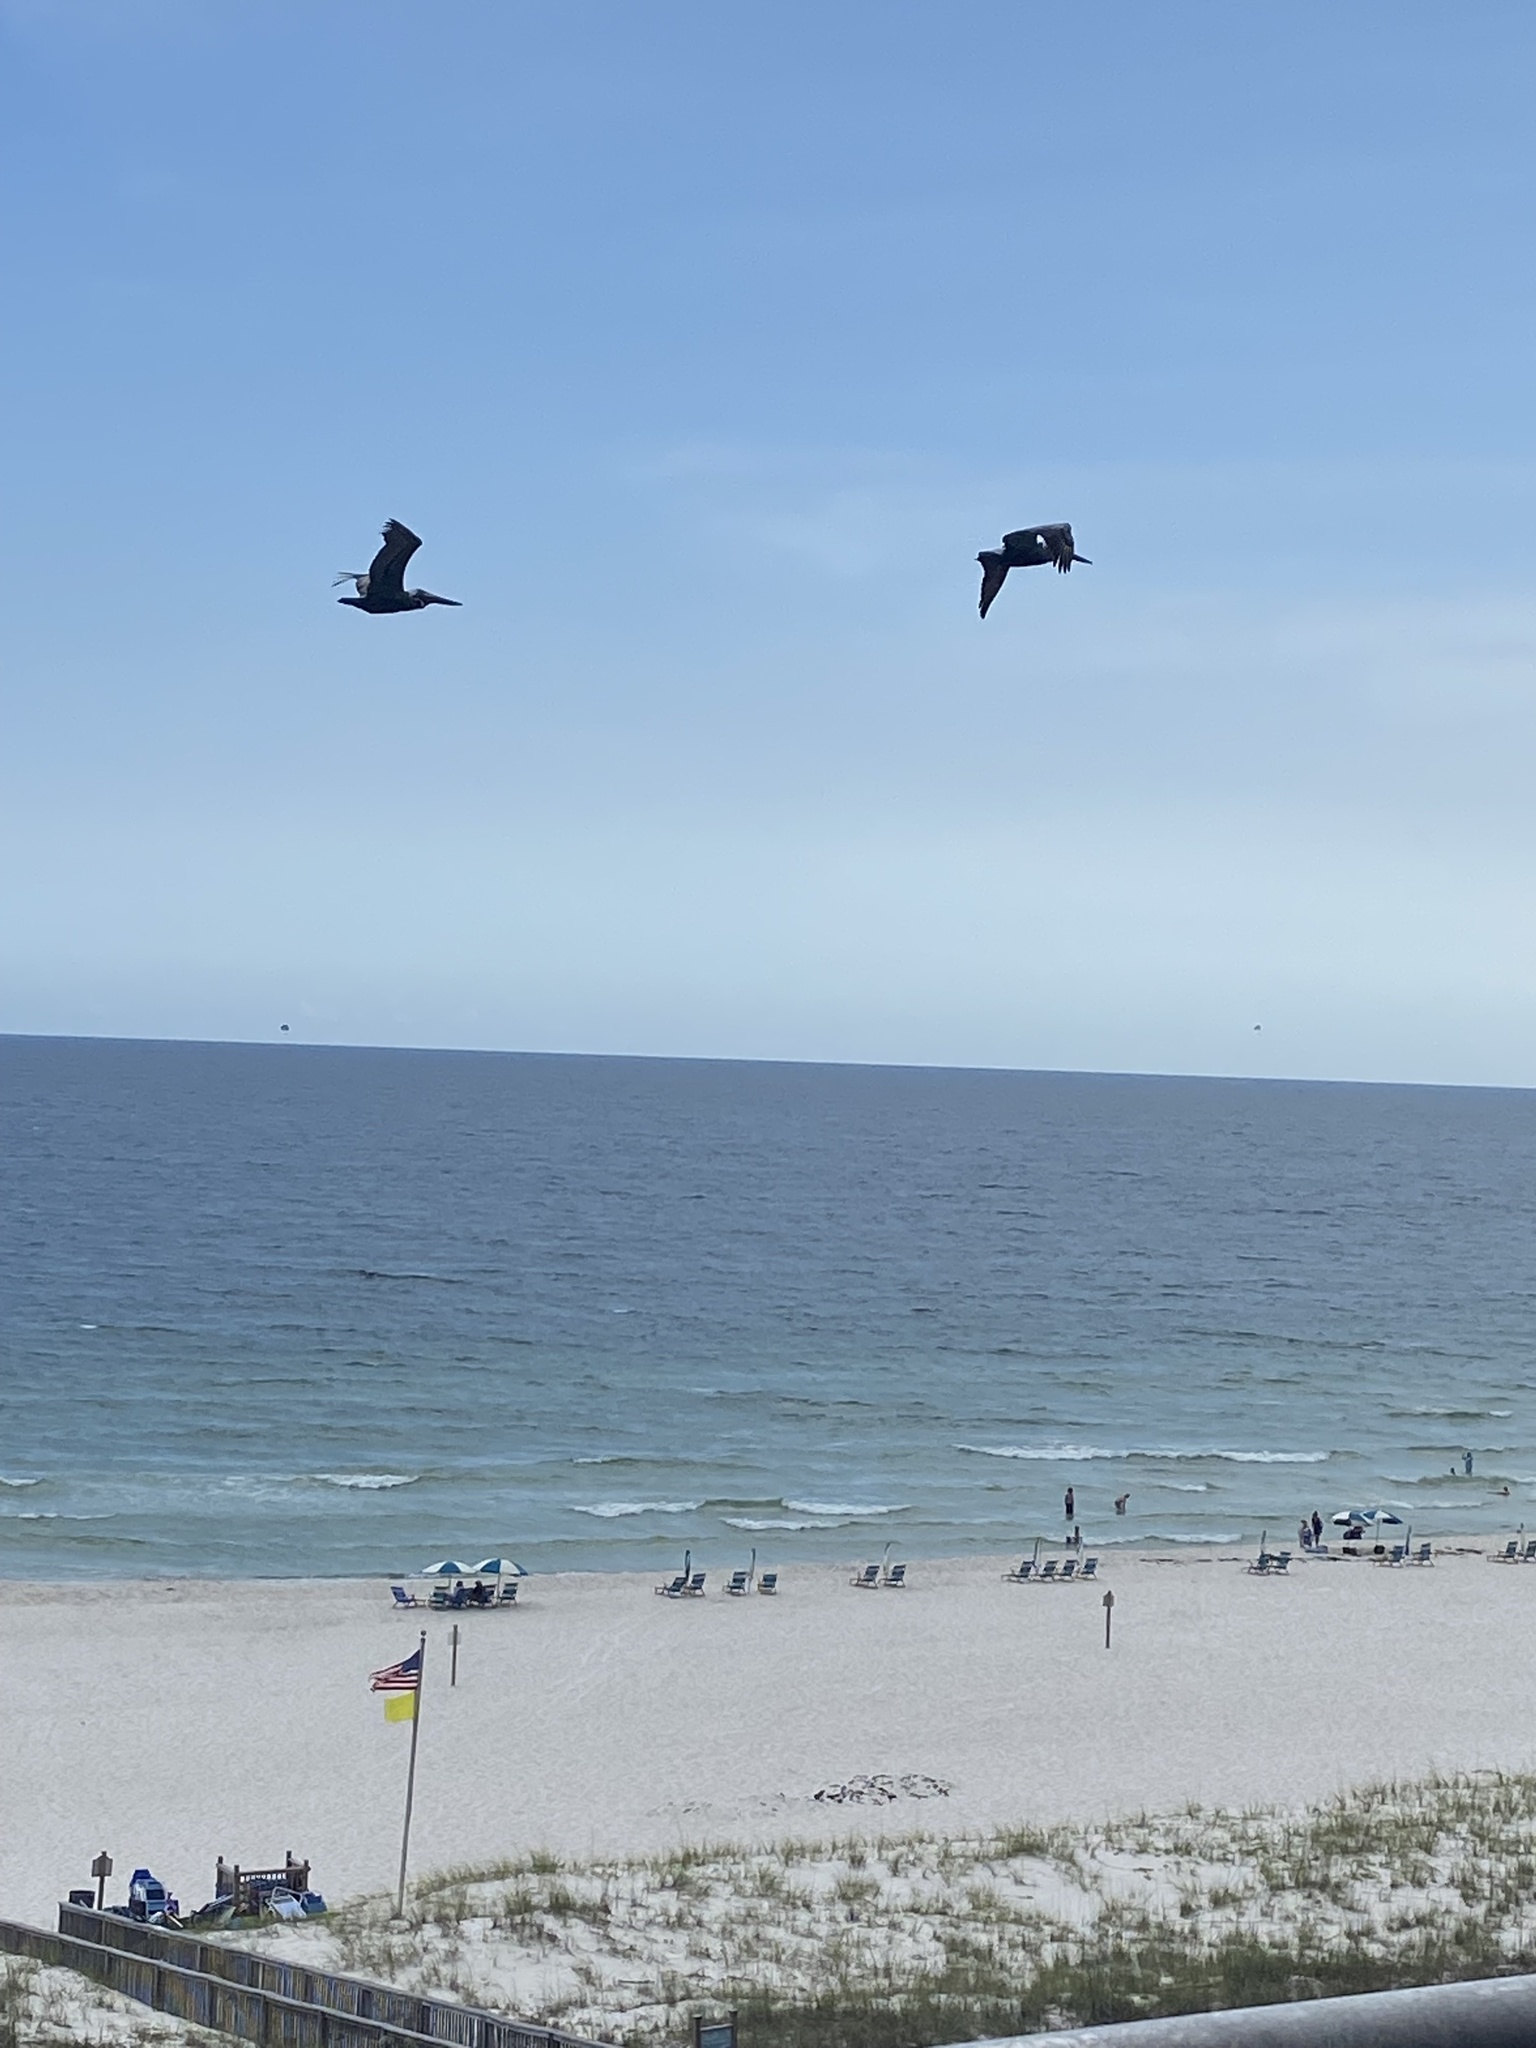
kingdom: Animalia
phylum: Chordata
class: Aves
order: Pelecaniformes
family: Pelecanidae
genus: Pelecanus
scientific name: Pelecanus occidentalis
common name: Brown pelican
